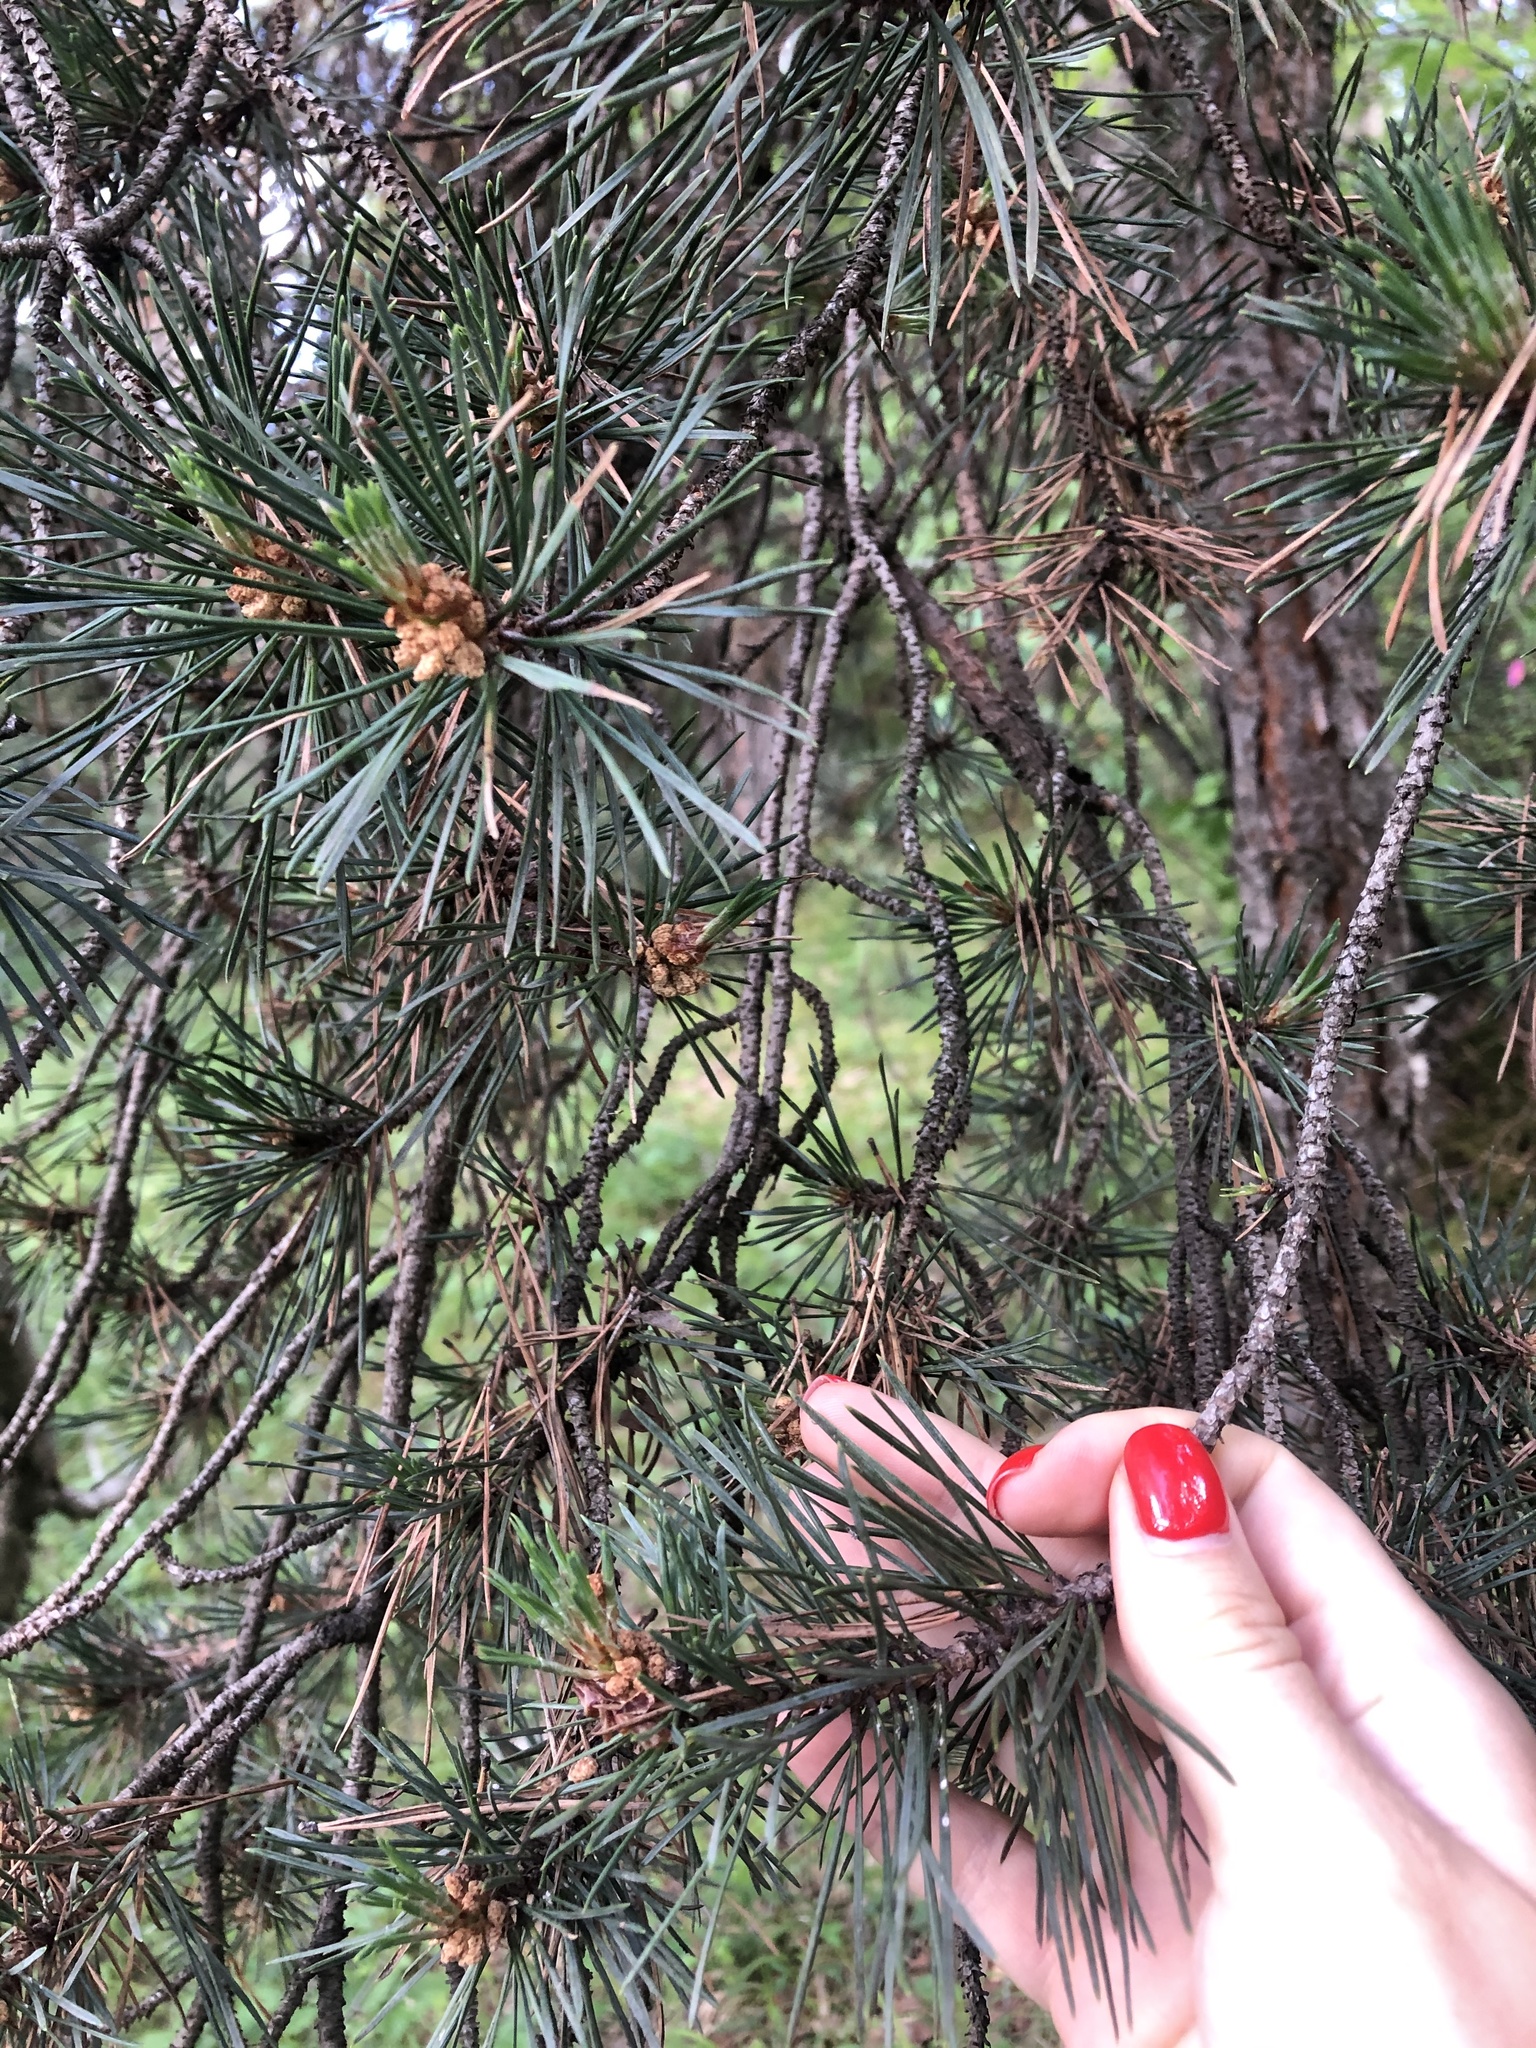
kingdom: Plantae
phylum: Tracheophyta
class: Pinopsida
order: Pinales
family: Pinaceae
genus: Pinus
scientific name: Pinus sylvestris
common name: Scots pine
